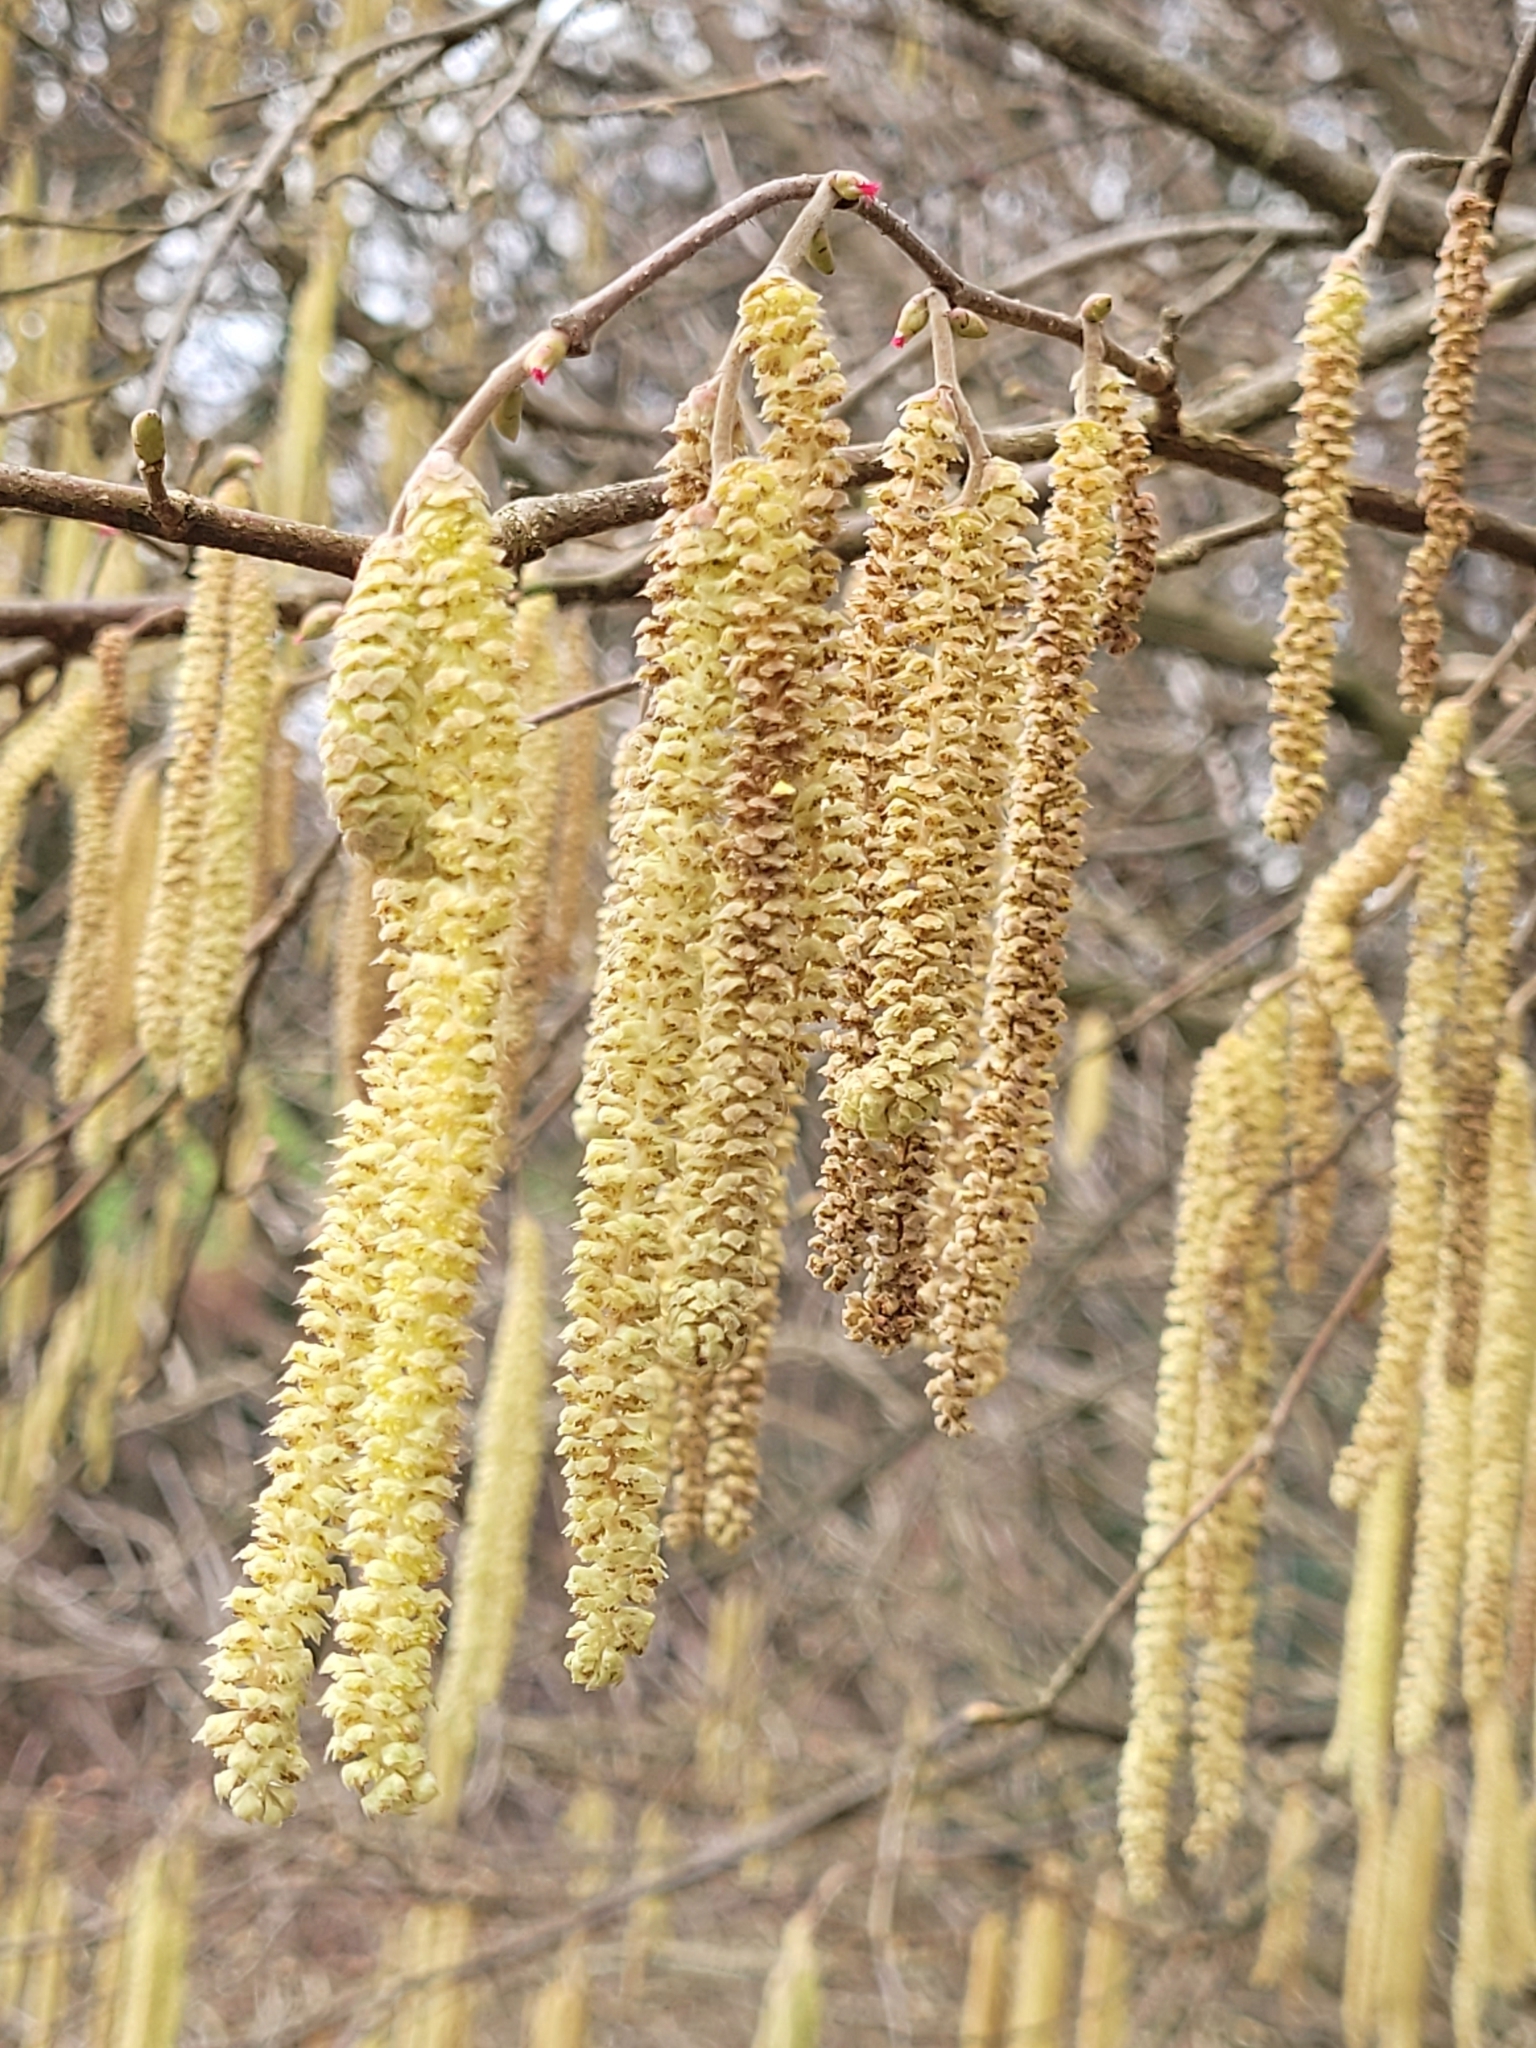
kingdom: Plantae
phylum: Tracheophyta
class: Magnoliopsida
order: Fagales
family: Betulaceae
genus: Corylus
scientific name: Corylus avellana
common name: European hazel
